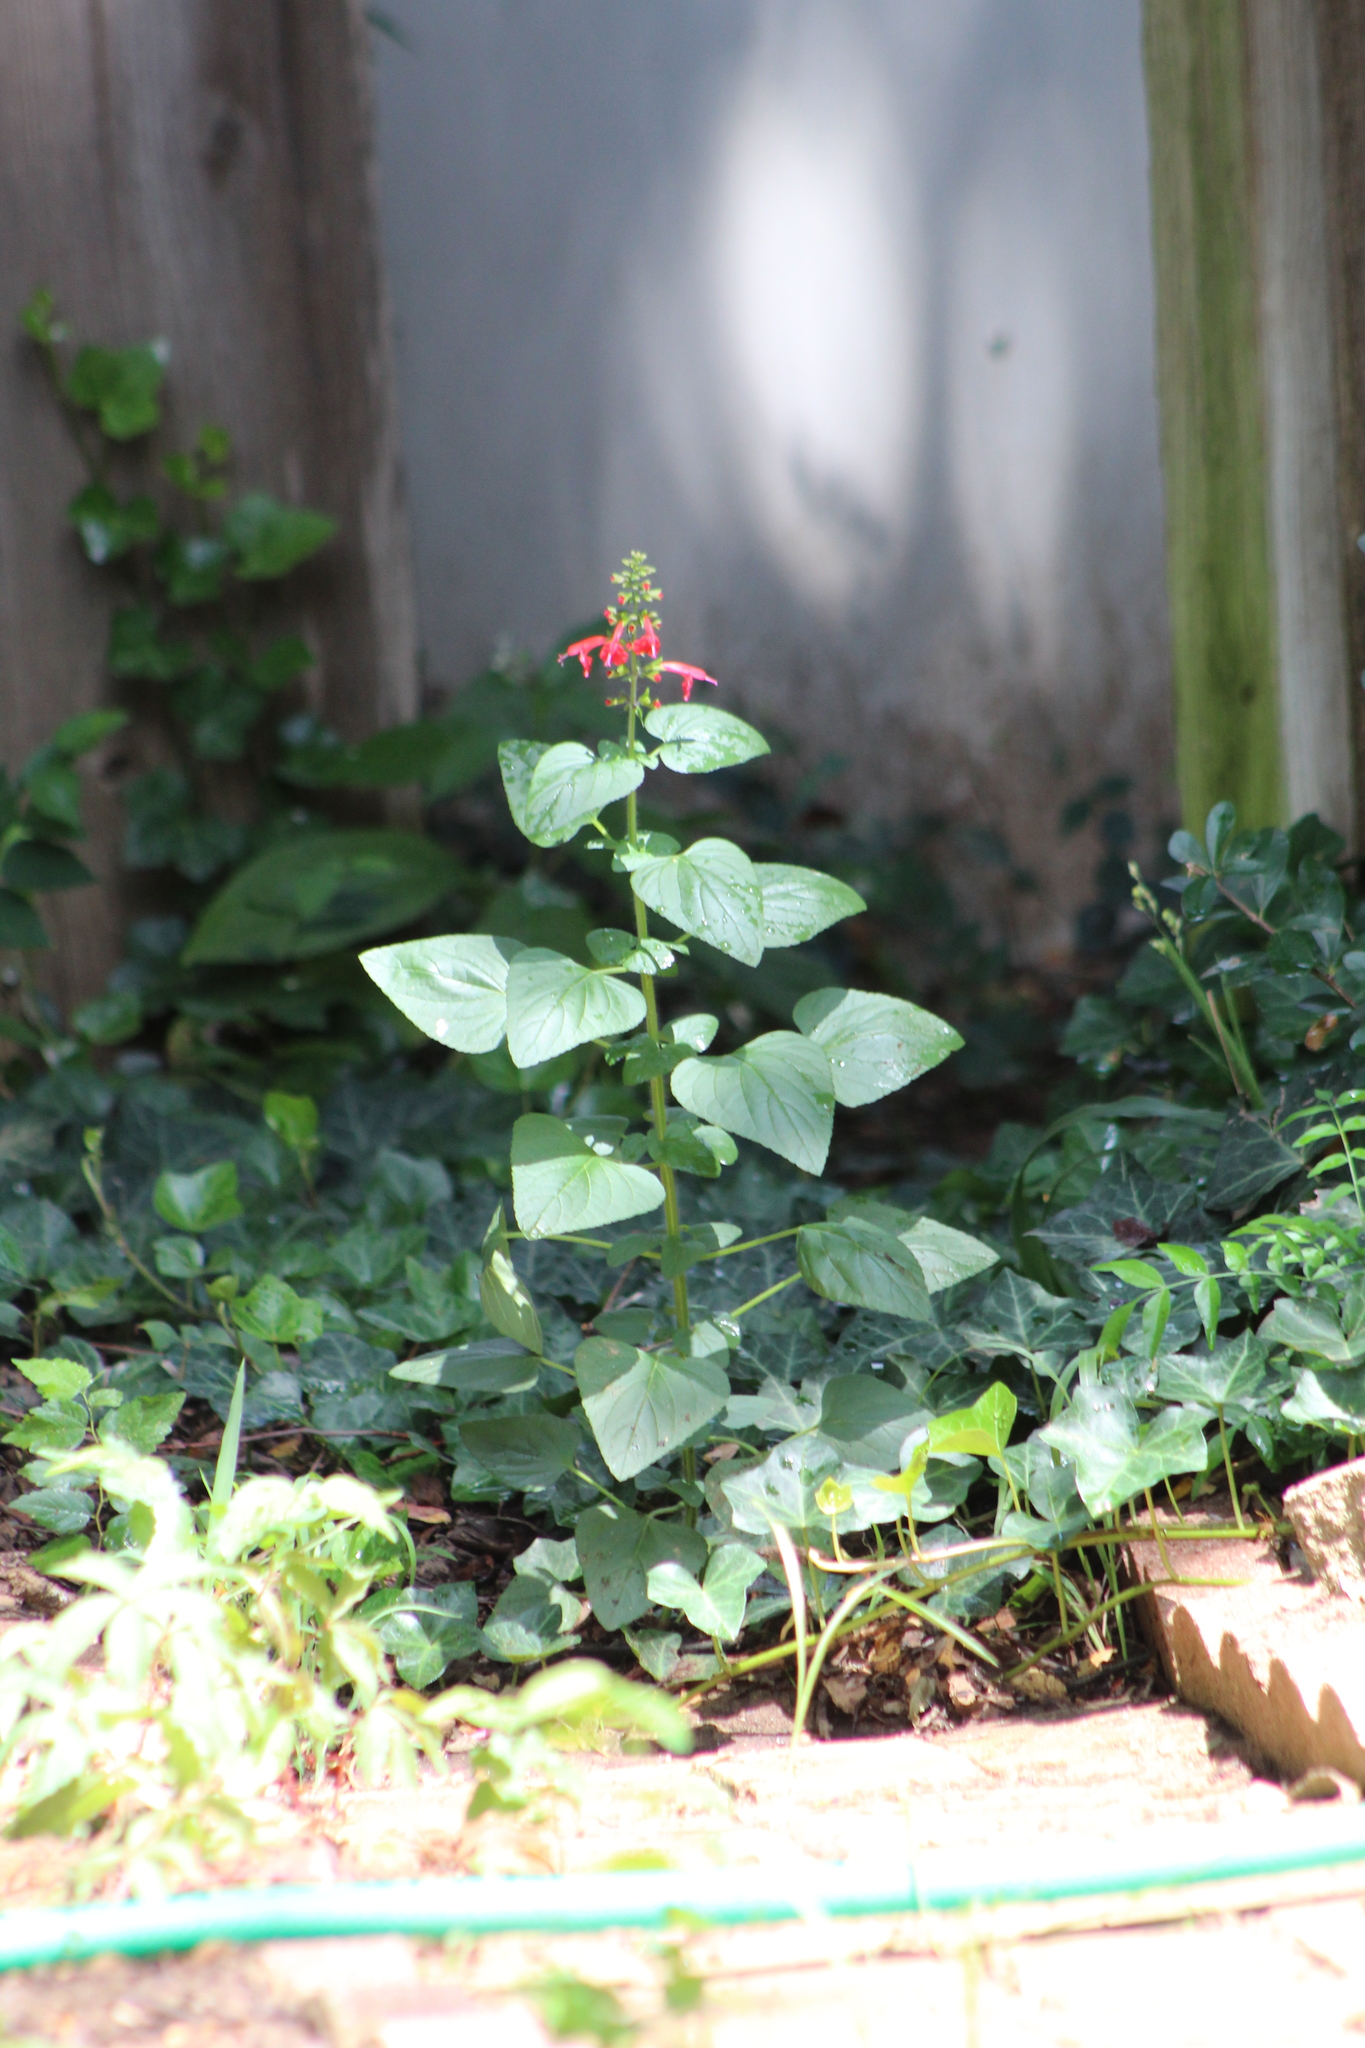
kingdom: Plantae
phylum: Tracheophyta
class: Magnoliopsida
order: Lamiales
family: Lamiaceae
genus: Salvia
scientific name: Salvia coccinea
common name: Blood sage
